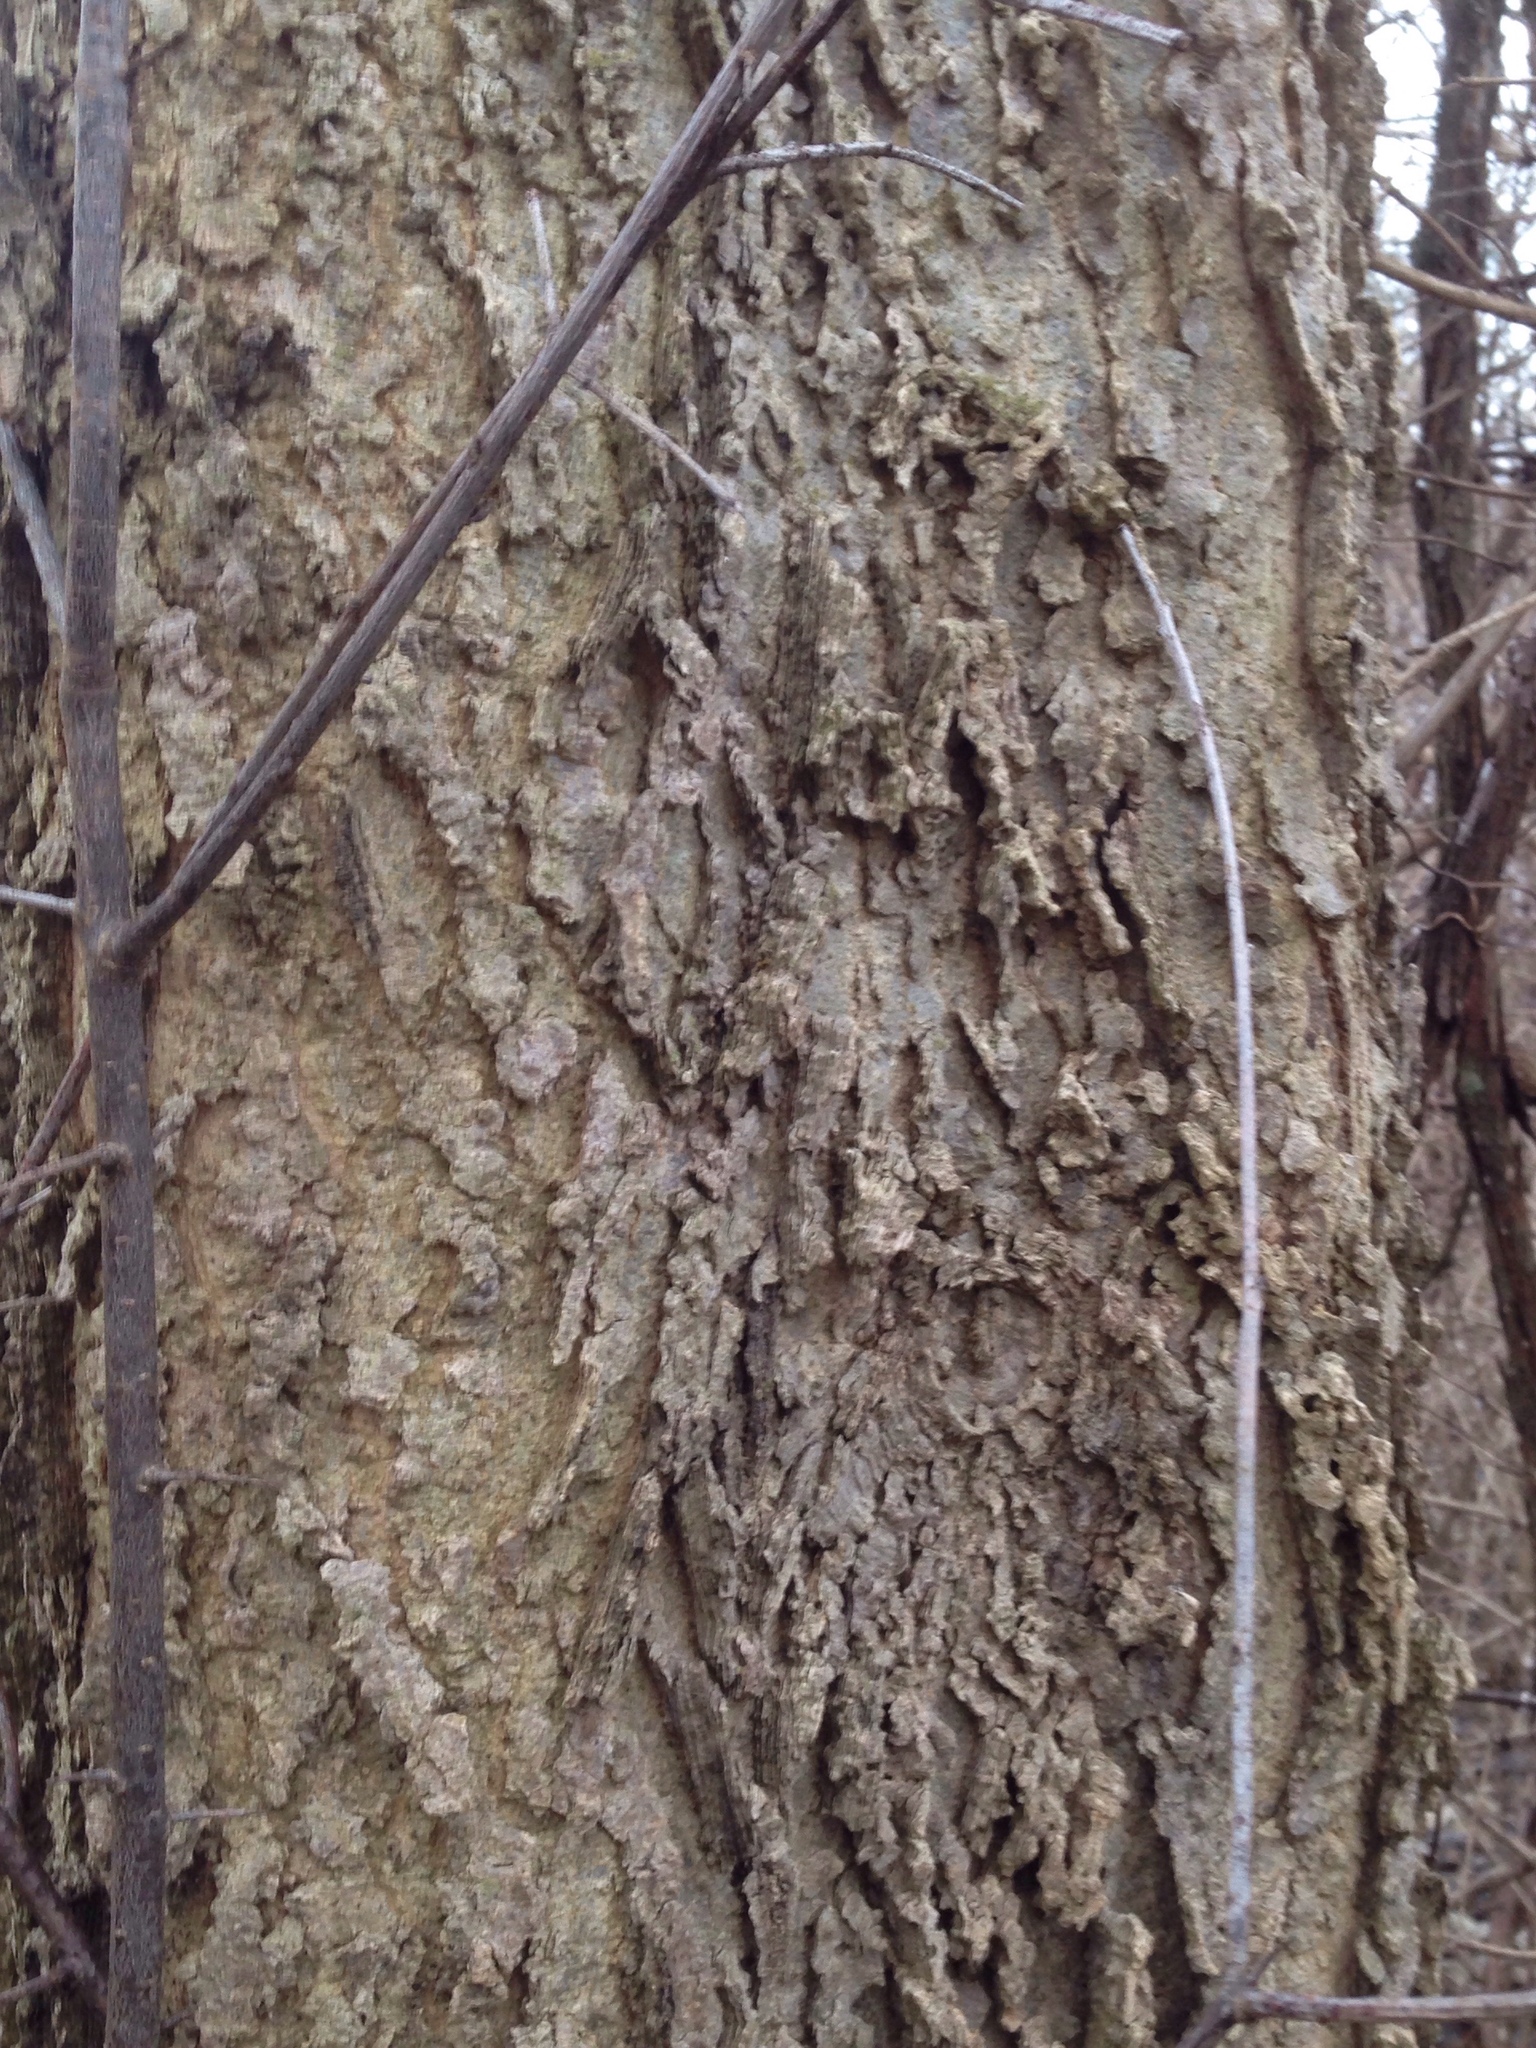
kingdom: Plantae
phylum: Tracheophyta
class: Magnoliopsida
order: Rosales
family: Cannabaceae
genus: Celtis
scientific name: Celtis occidentalis
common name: Common hackberry
